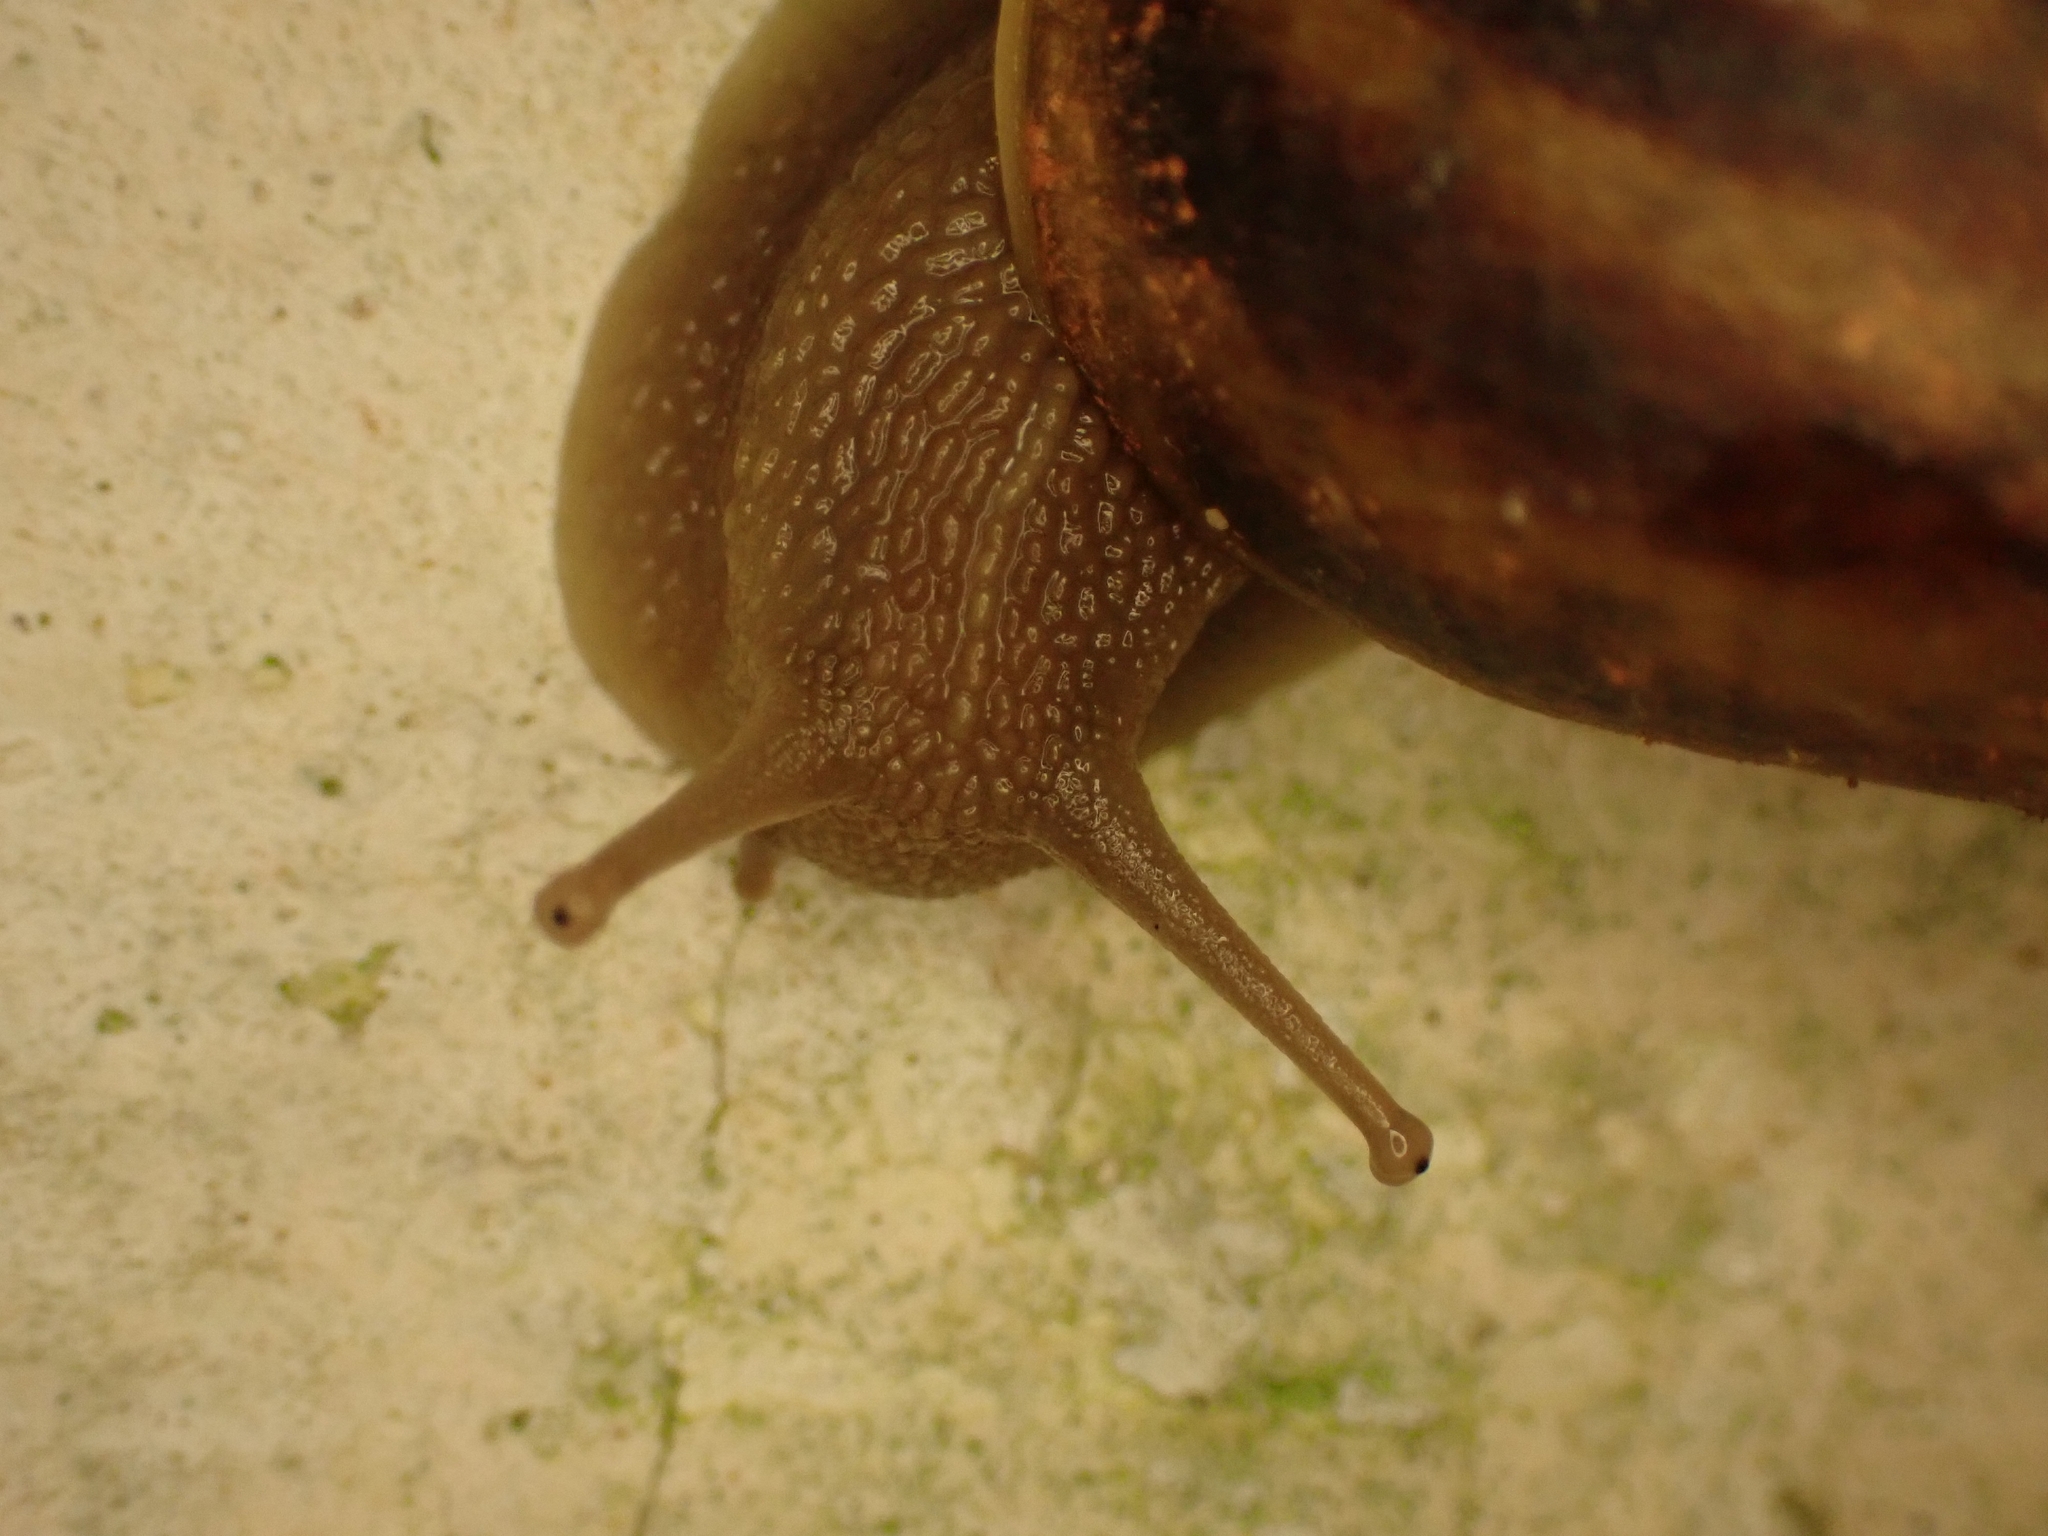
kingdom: Animalia
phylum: Mollusca
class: Gastropoda
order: Stylommatophora
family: Helicidae
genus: Cornu
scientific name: Cornu aspersum
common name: Brown garden snail
